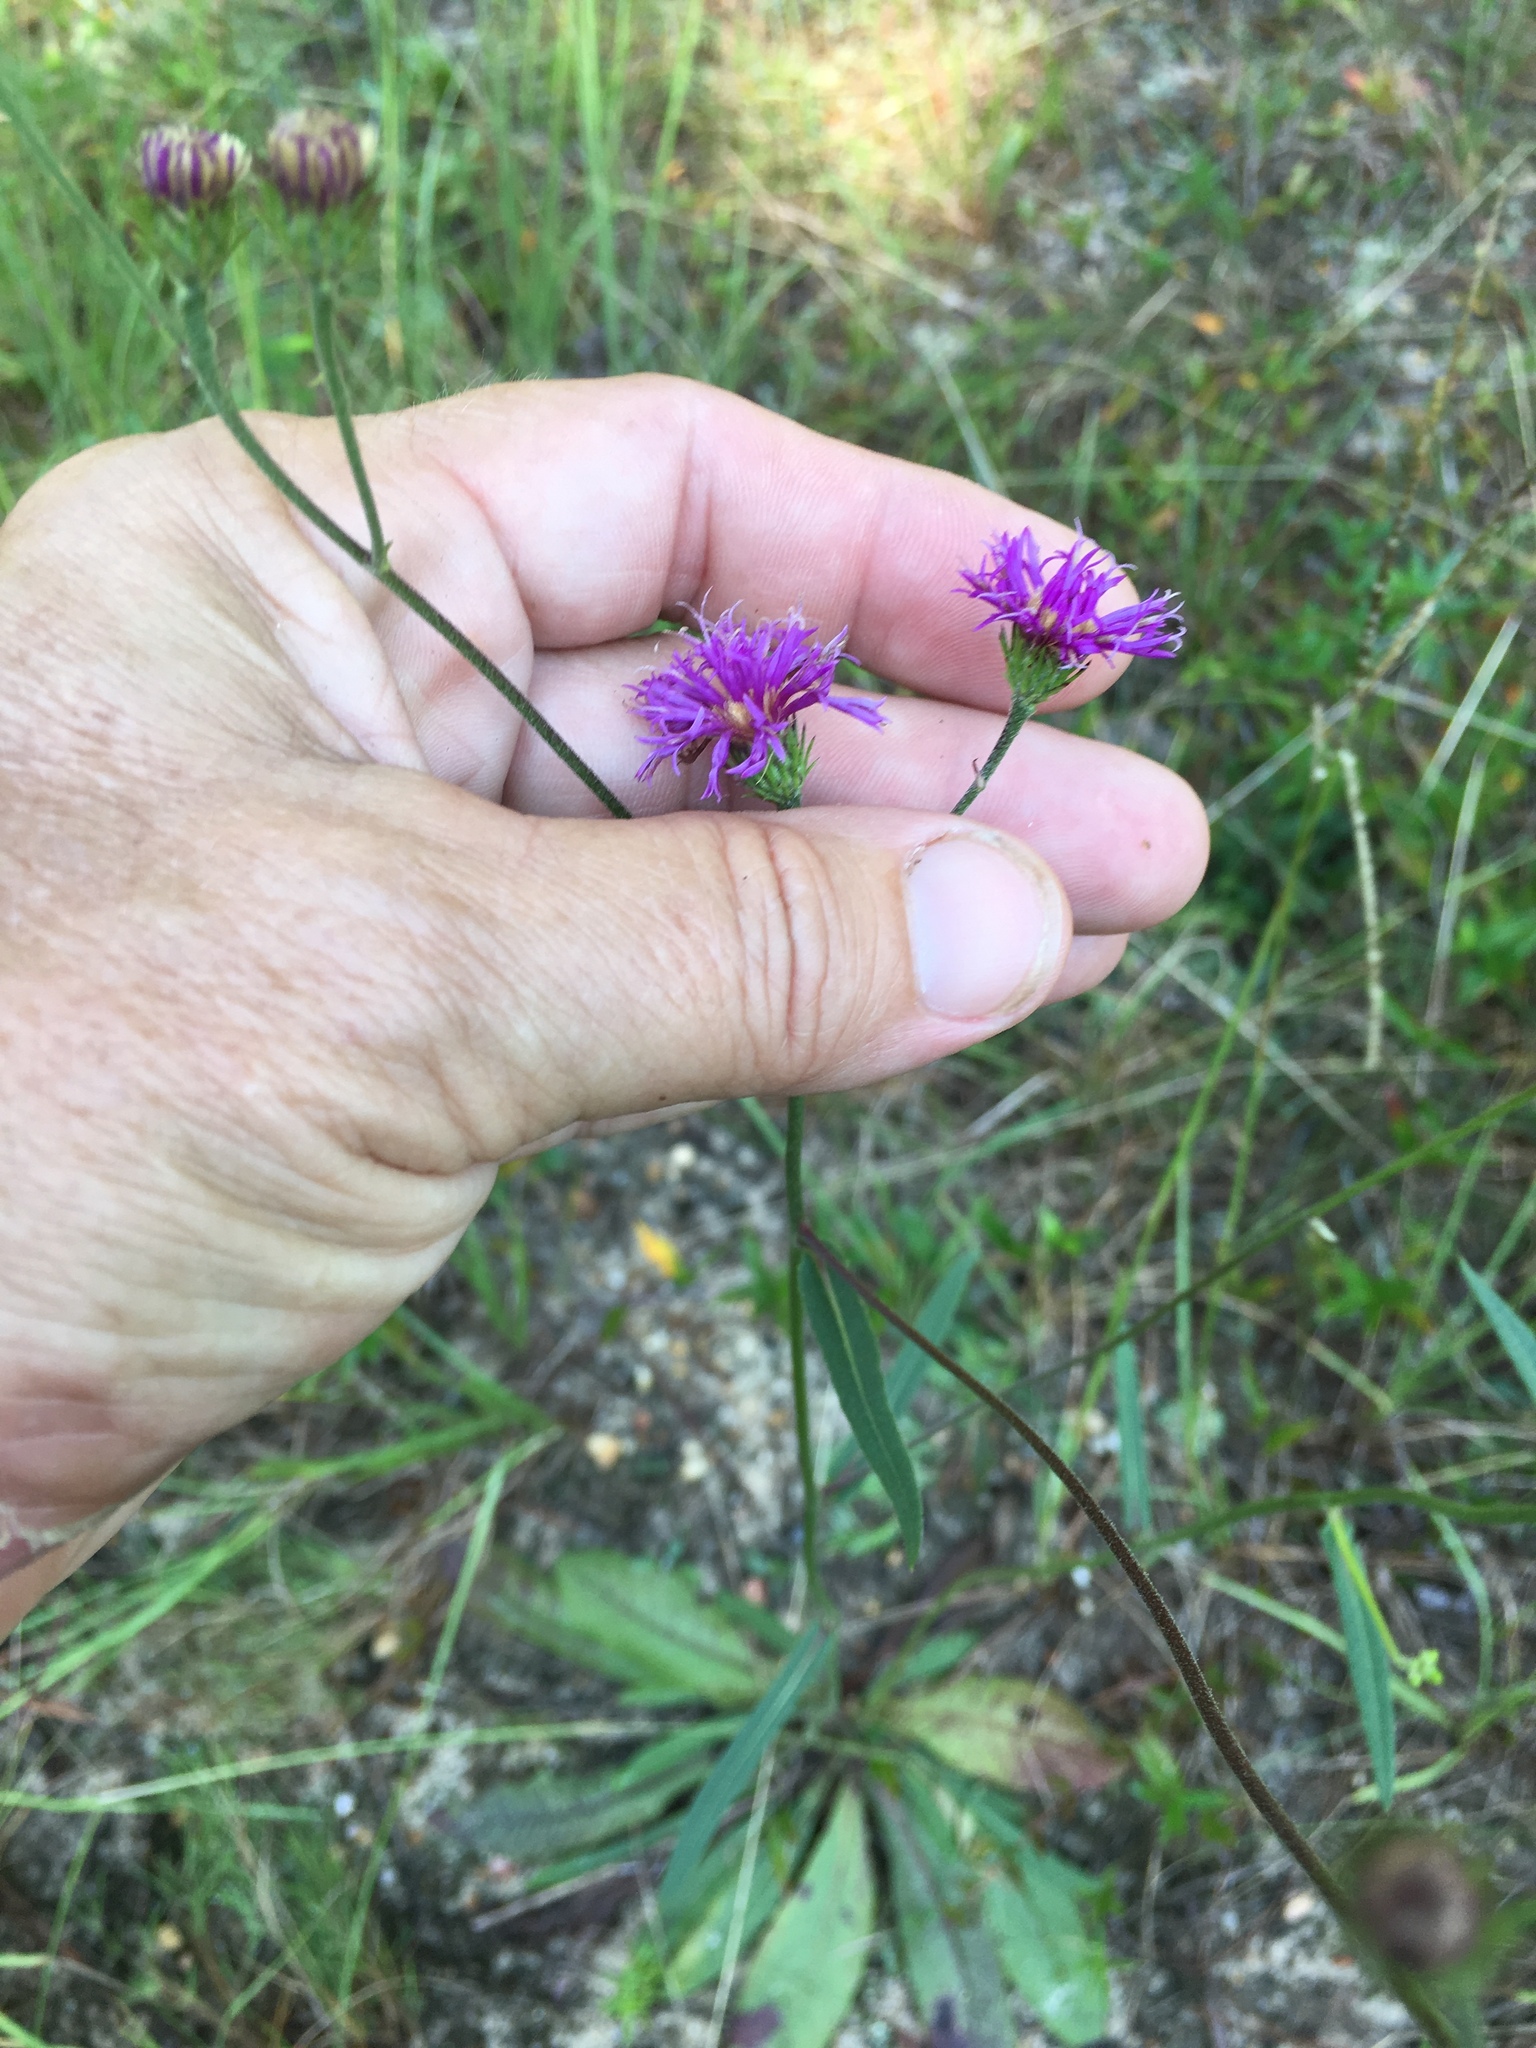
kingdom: Plantae
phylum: Tracheophyta
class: Magnoliopsida
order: Asterales
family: Asteraceae
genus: Vernonia
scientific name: Vernonia acaulis
